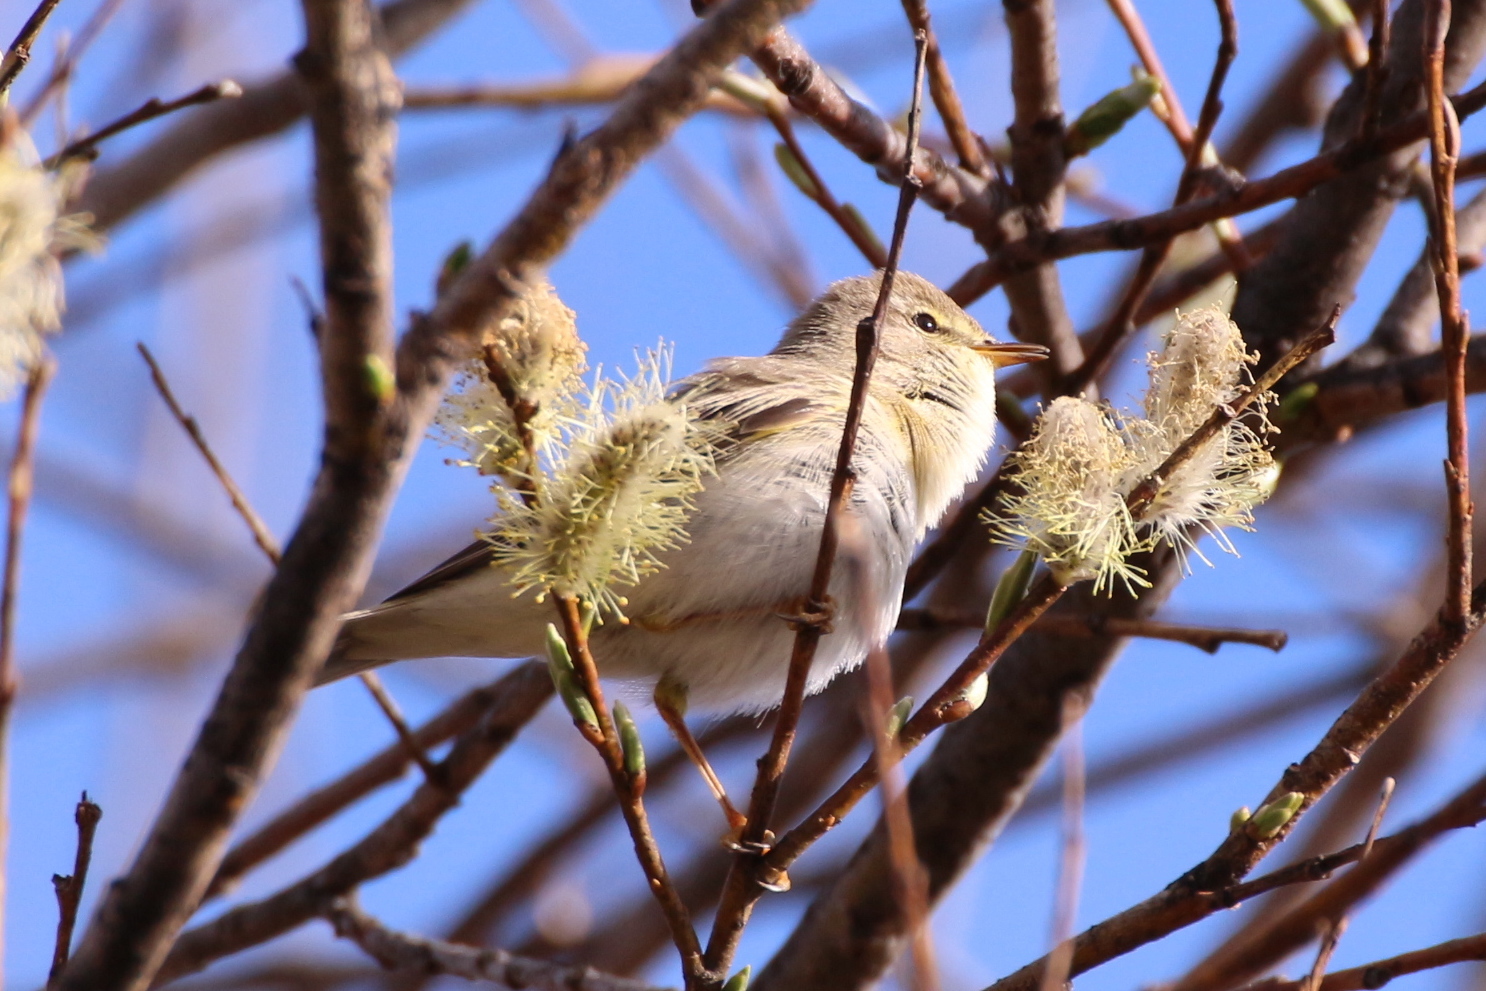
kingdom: Animalia
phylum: Chordata
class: Aves
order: Passeriformes
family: Phylloscopidae
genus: Phylloscopus
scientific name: Phylloscopus trochilus
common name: Willow warbler
